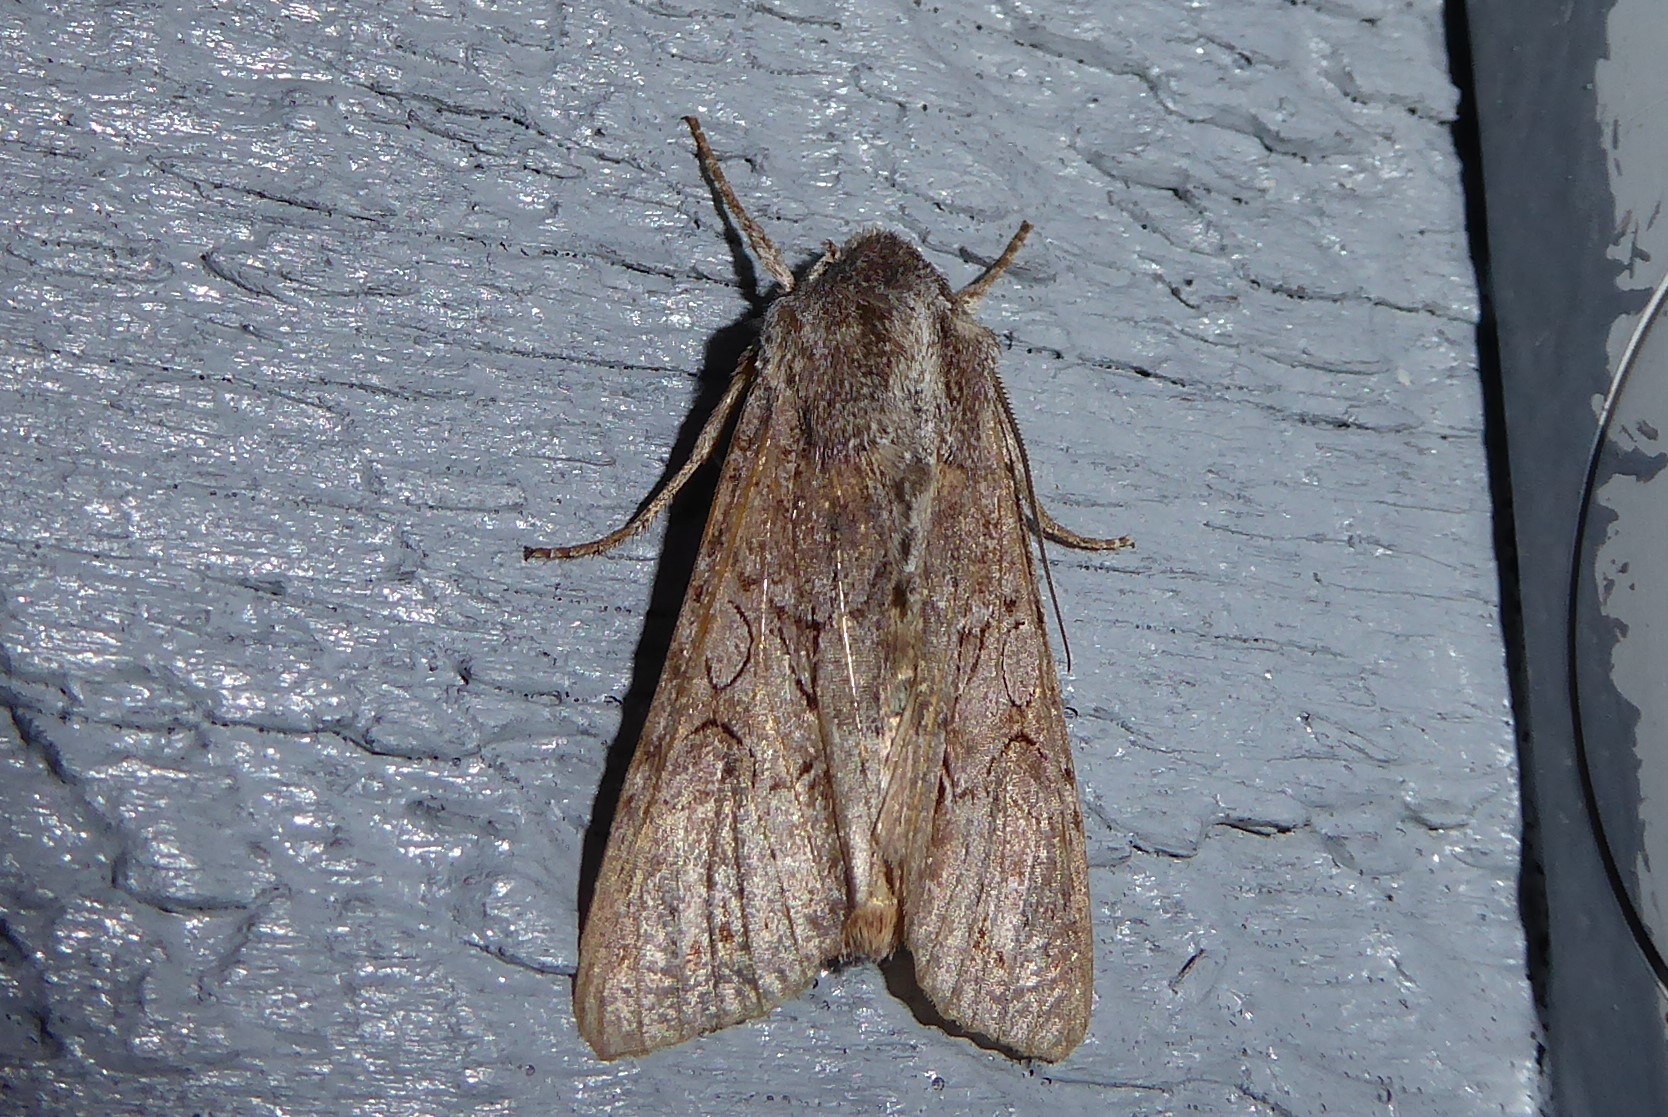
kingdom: Animalia
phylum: Arthropoda
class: Insecta
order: Lepidoptera
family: Noctuidae
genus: Ichneutica
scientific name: Ichneutica
